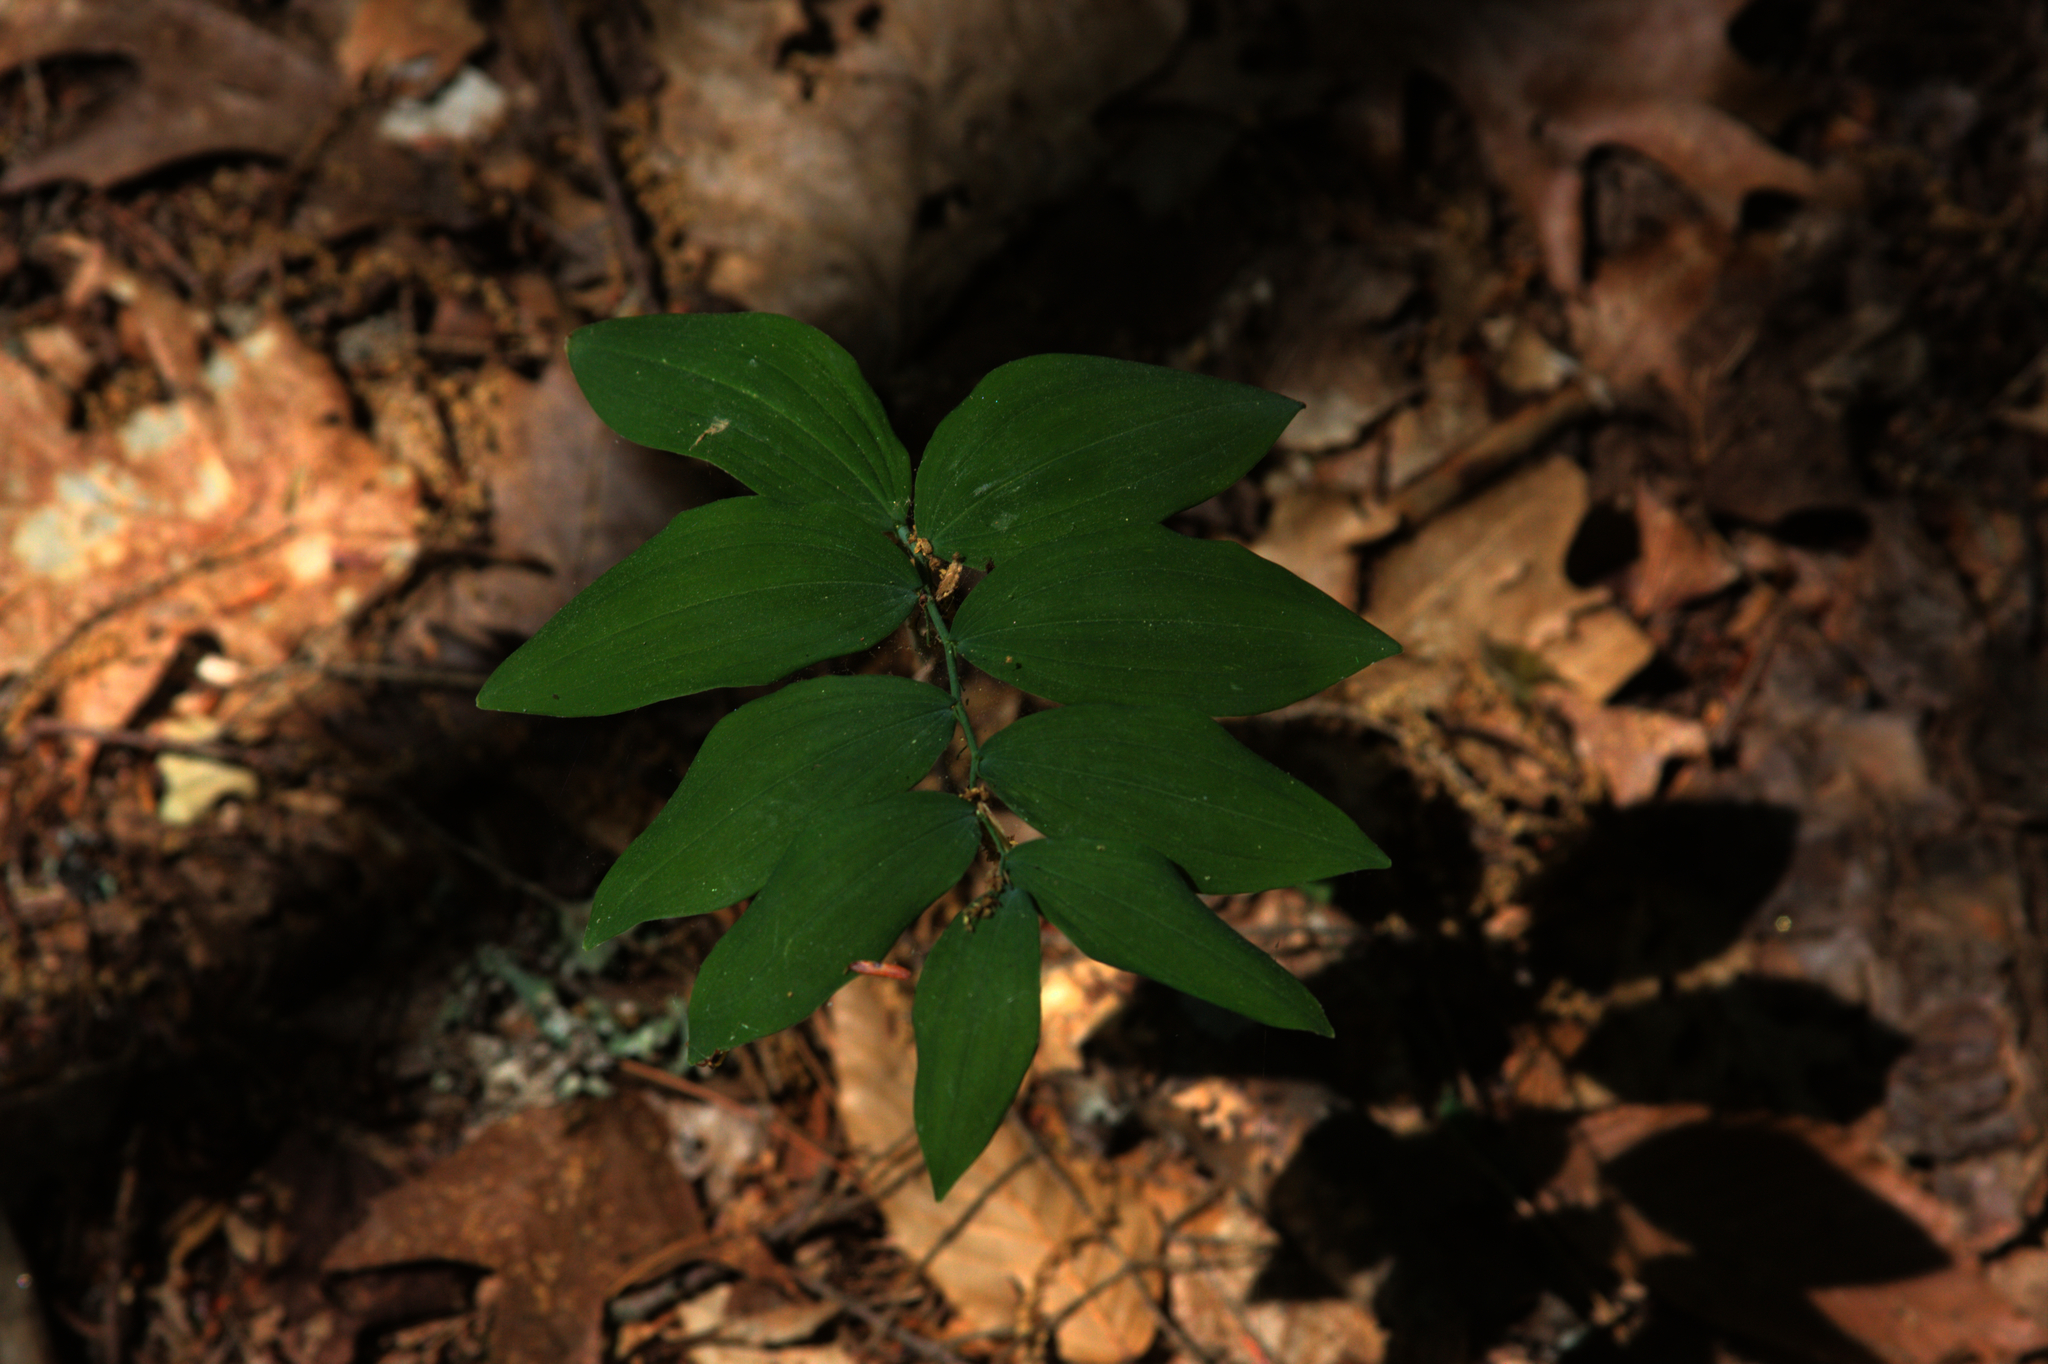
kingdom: Plantae
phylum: Tracheophyta
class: Liliopsida
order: Asparagales
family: Asparagaceae
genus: Polygonatum
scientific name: Polygonatum pubescens
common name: Downy solomon's seal
